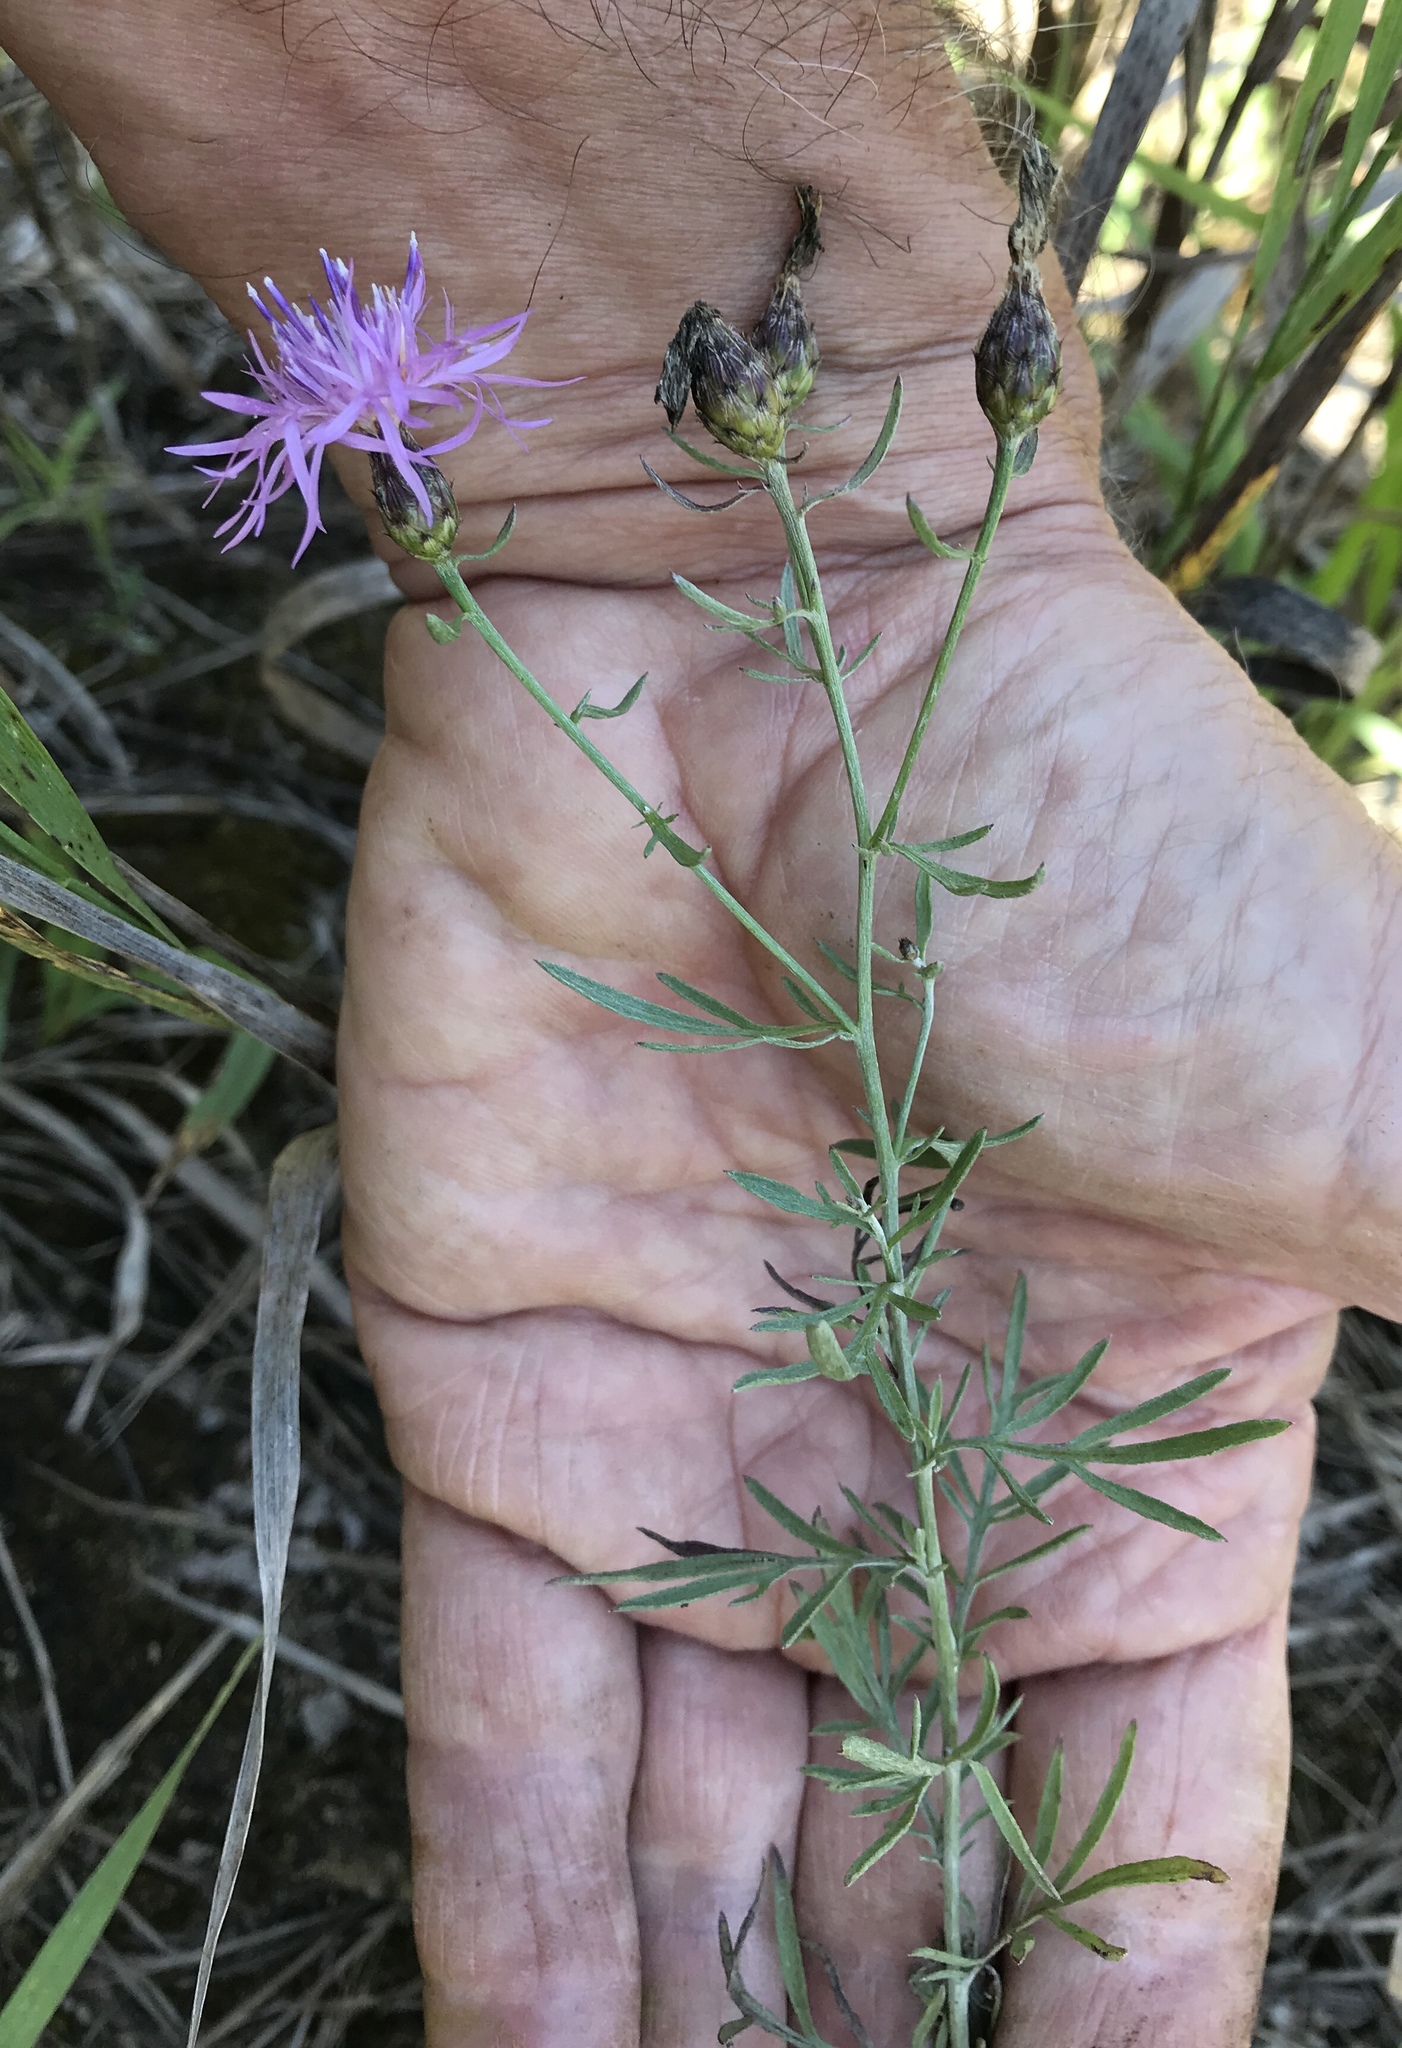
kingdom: Plantae
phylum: Tracheophyta
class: Magnoliopsida
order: Asterales
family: Asteraceae
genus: Centaurea
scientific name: Centaurea stoebe
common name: Spotted knapweed
